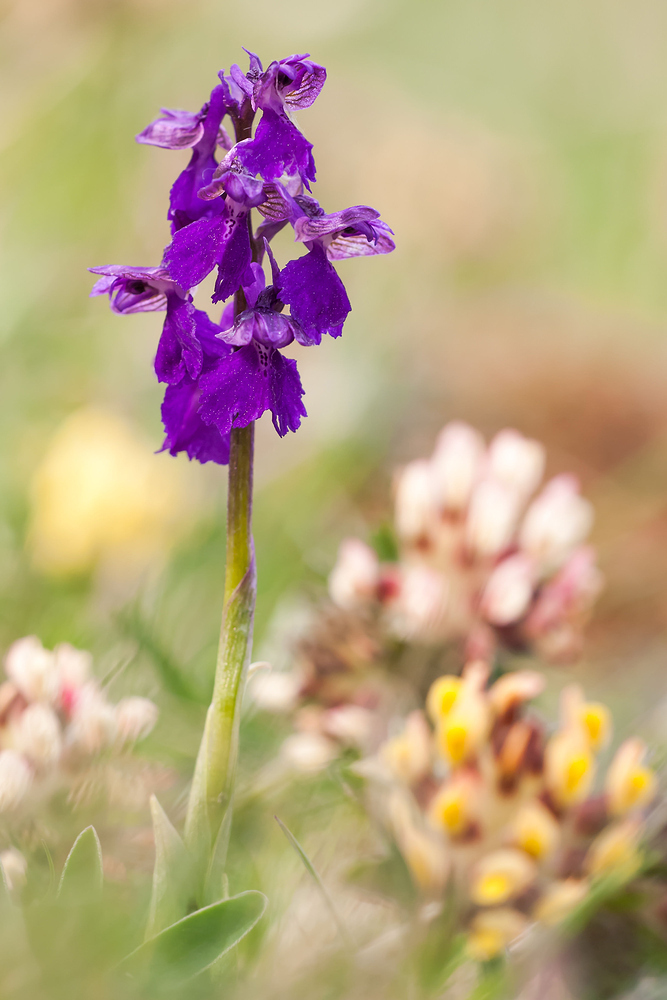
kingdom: Plantae
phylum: Tracheophyta
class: Liliopsida
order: Asparagales
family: Orchidaceae
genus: Anacamptis
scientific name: Anacamptis morio
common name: Green-winged orchid
